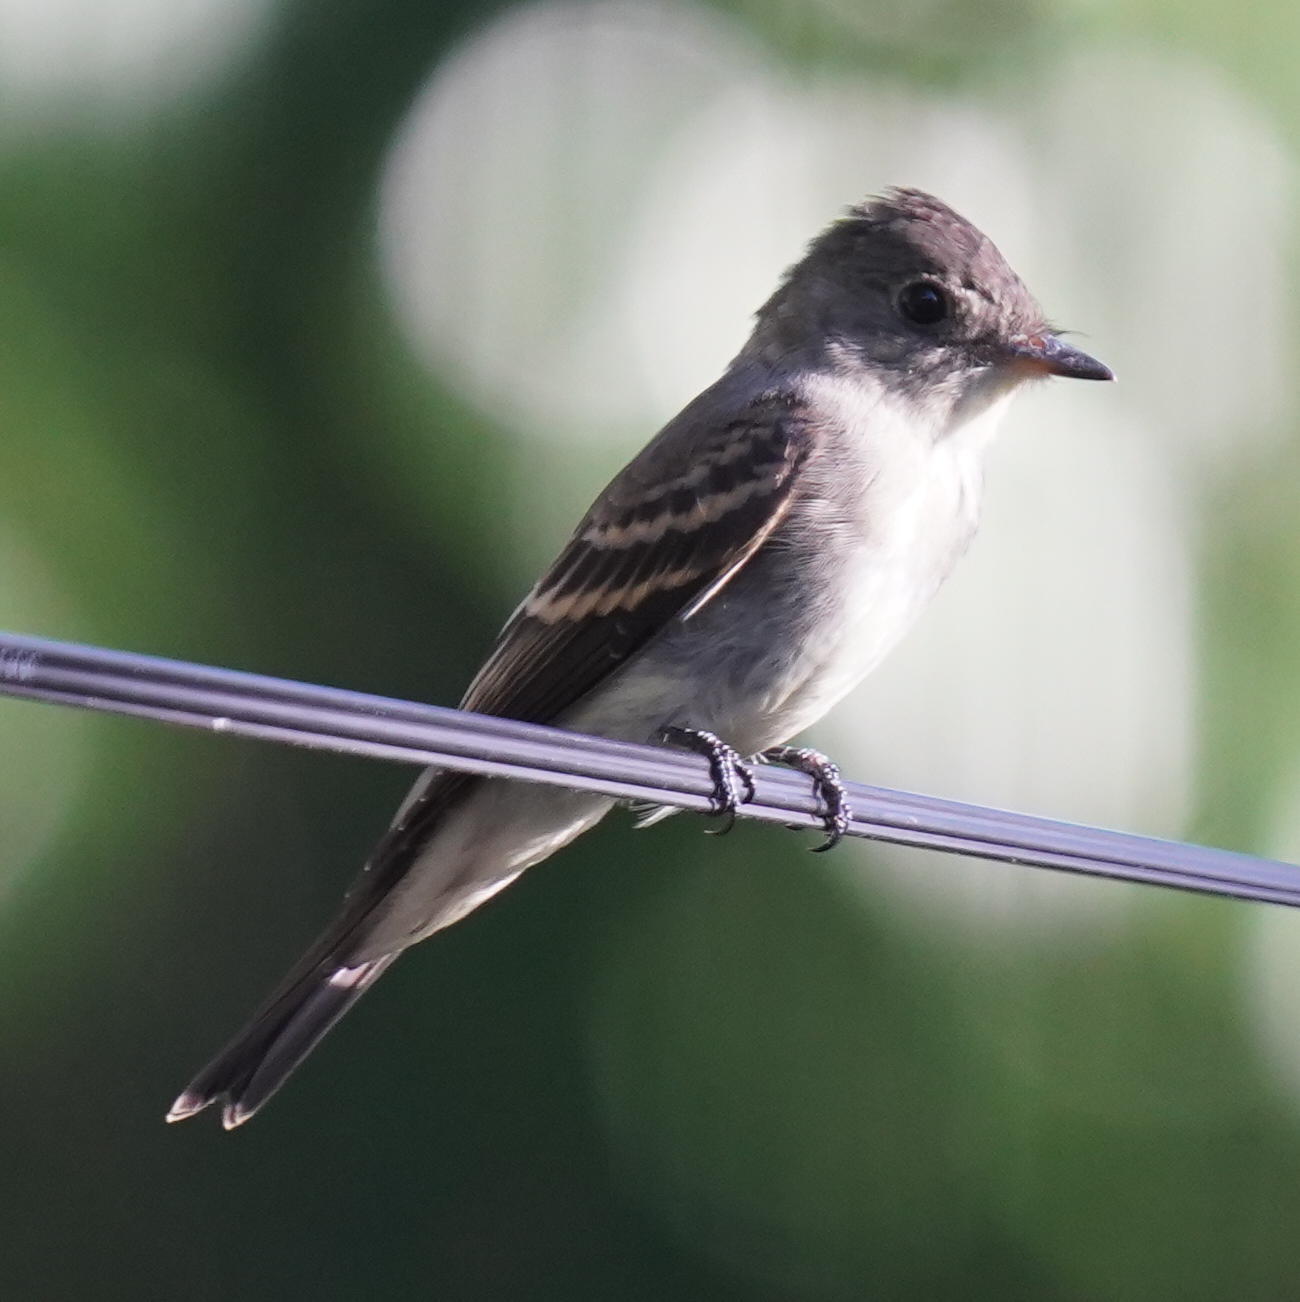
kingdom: Animalia
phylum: Chordata
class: Aves
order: Passeriformes
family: Tyrannidae
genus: Contopus
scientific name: Contopus virens
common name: Eastern wood-pewee
